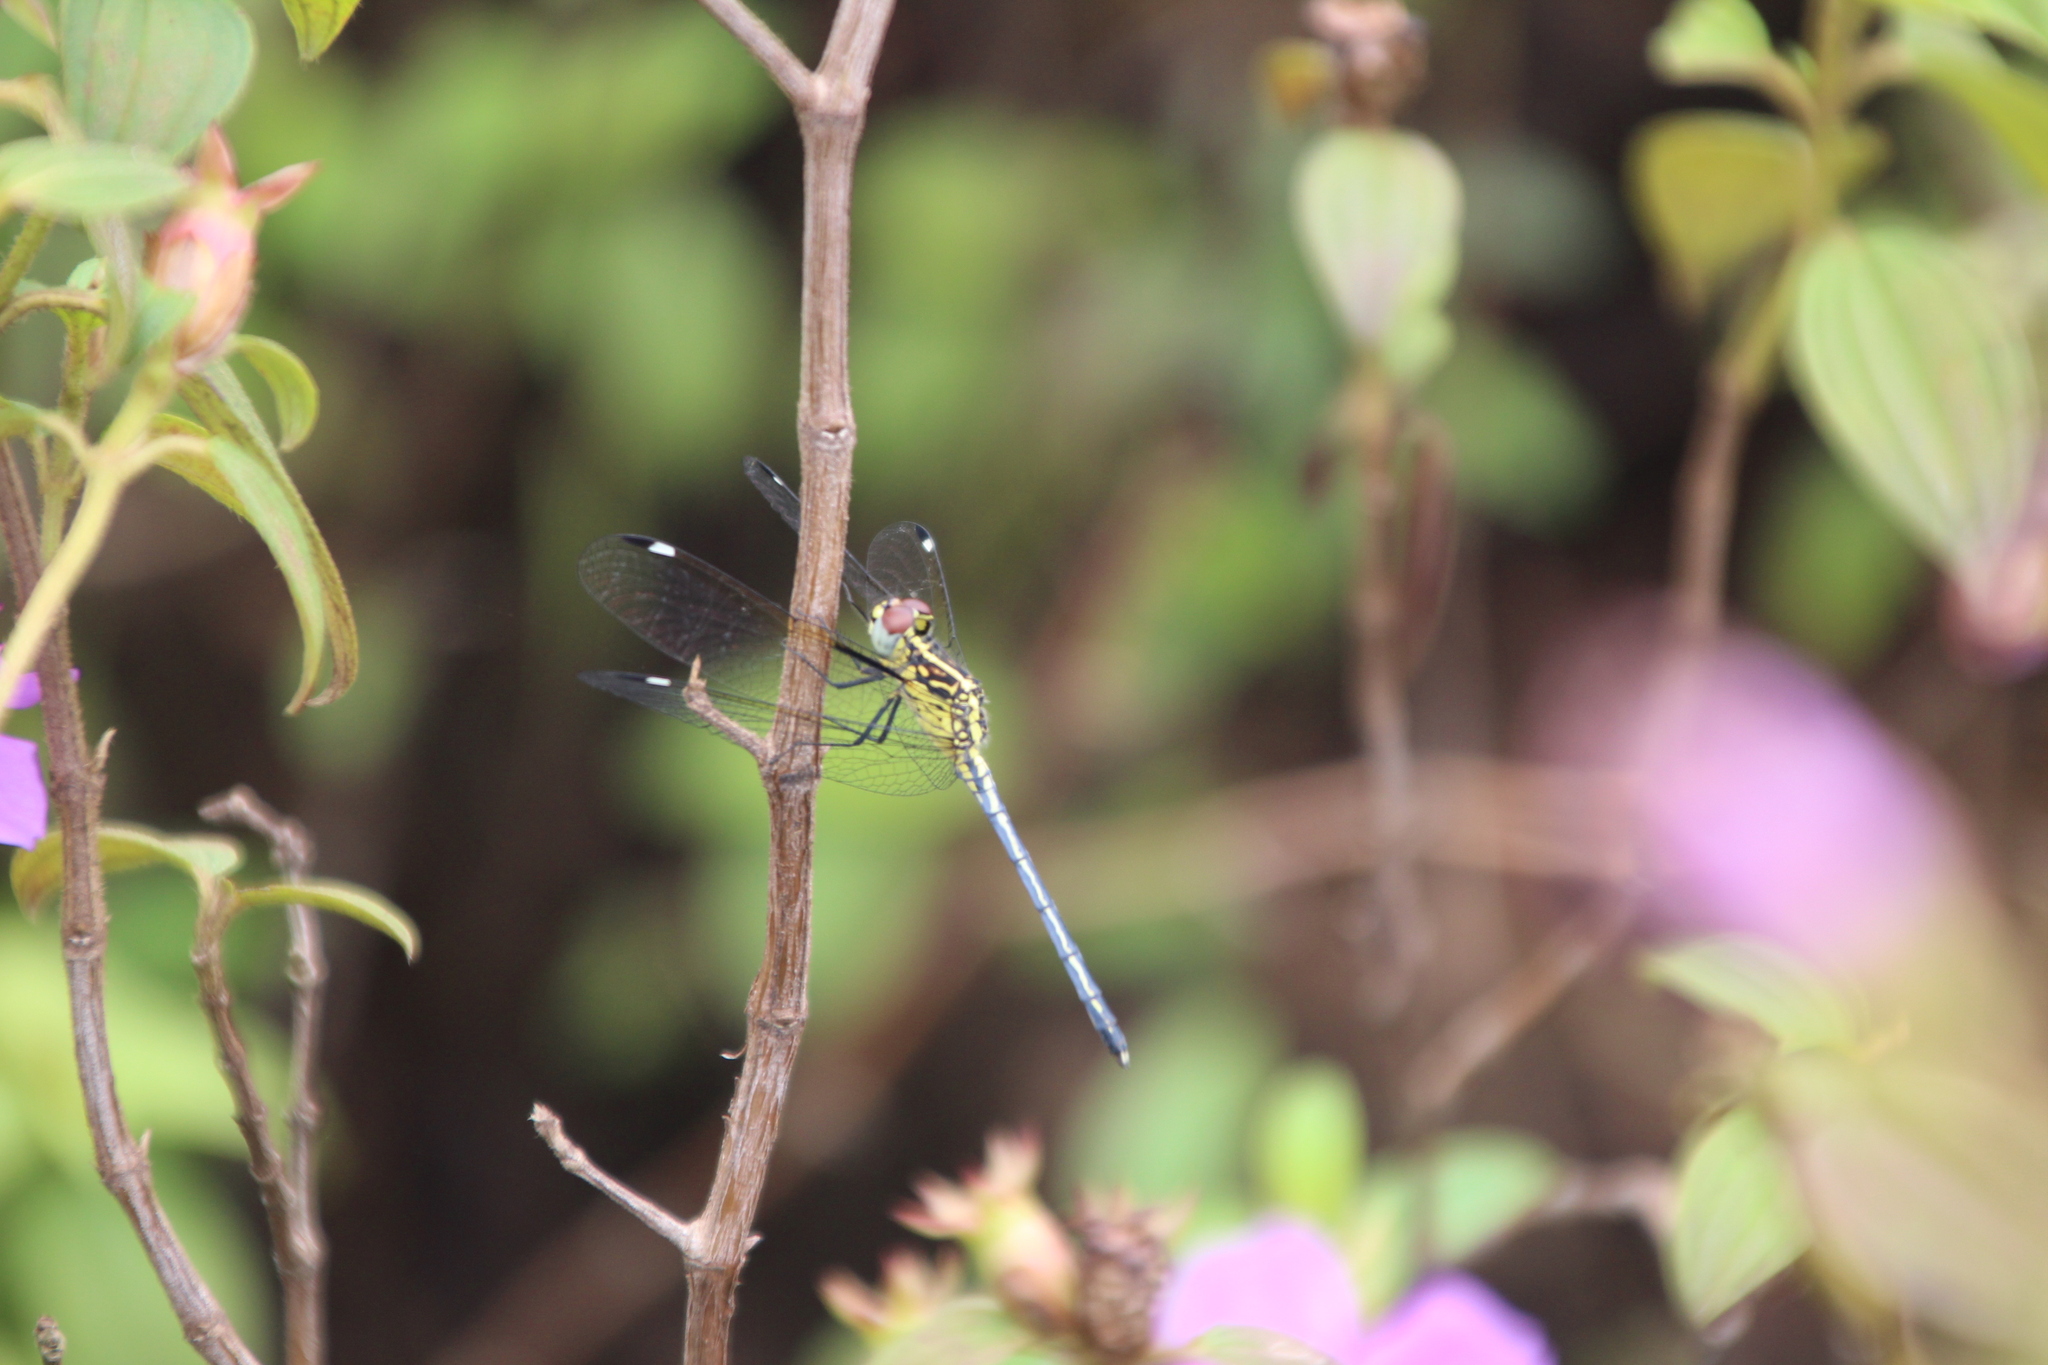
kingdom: Animalia
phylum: Arthropoda
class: Insecta
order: Odonata
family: Libellulidae
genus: Hemistigma
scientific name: Hemistigma albipunctum
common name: African pied-spot
